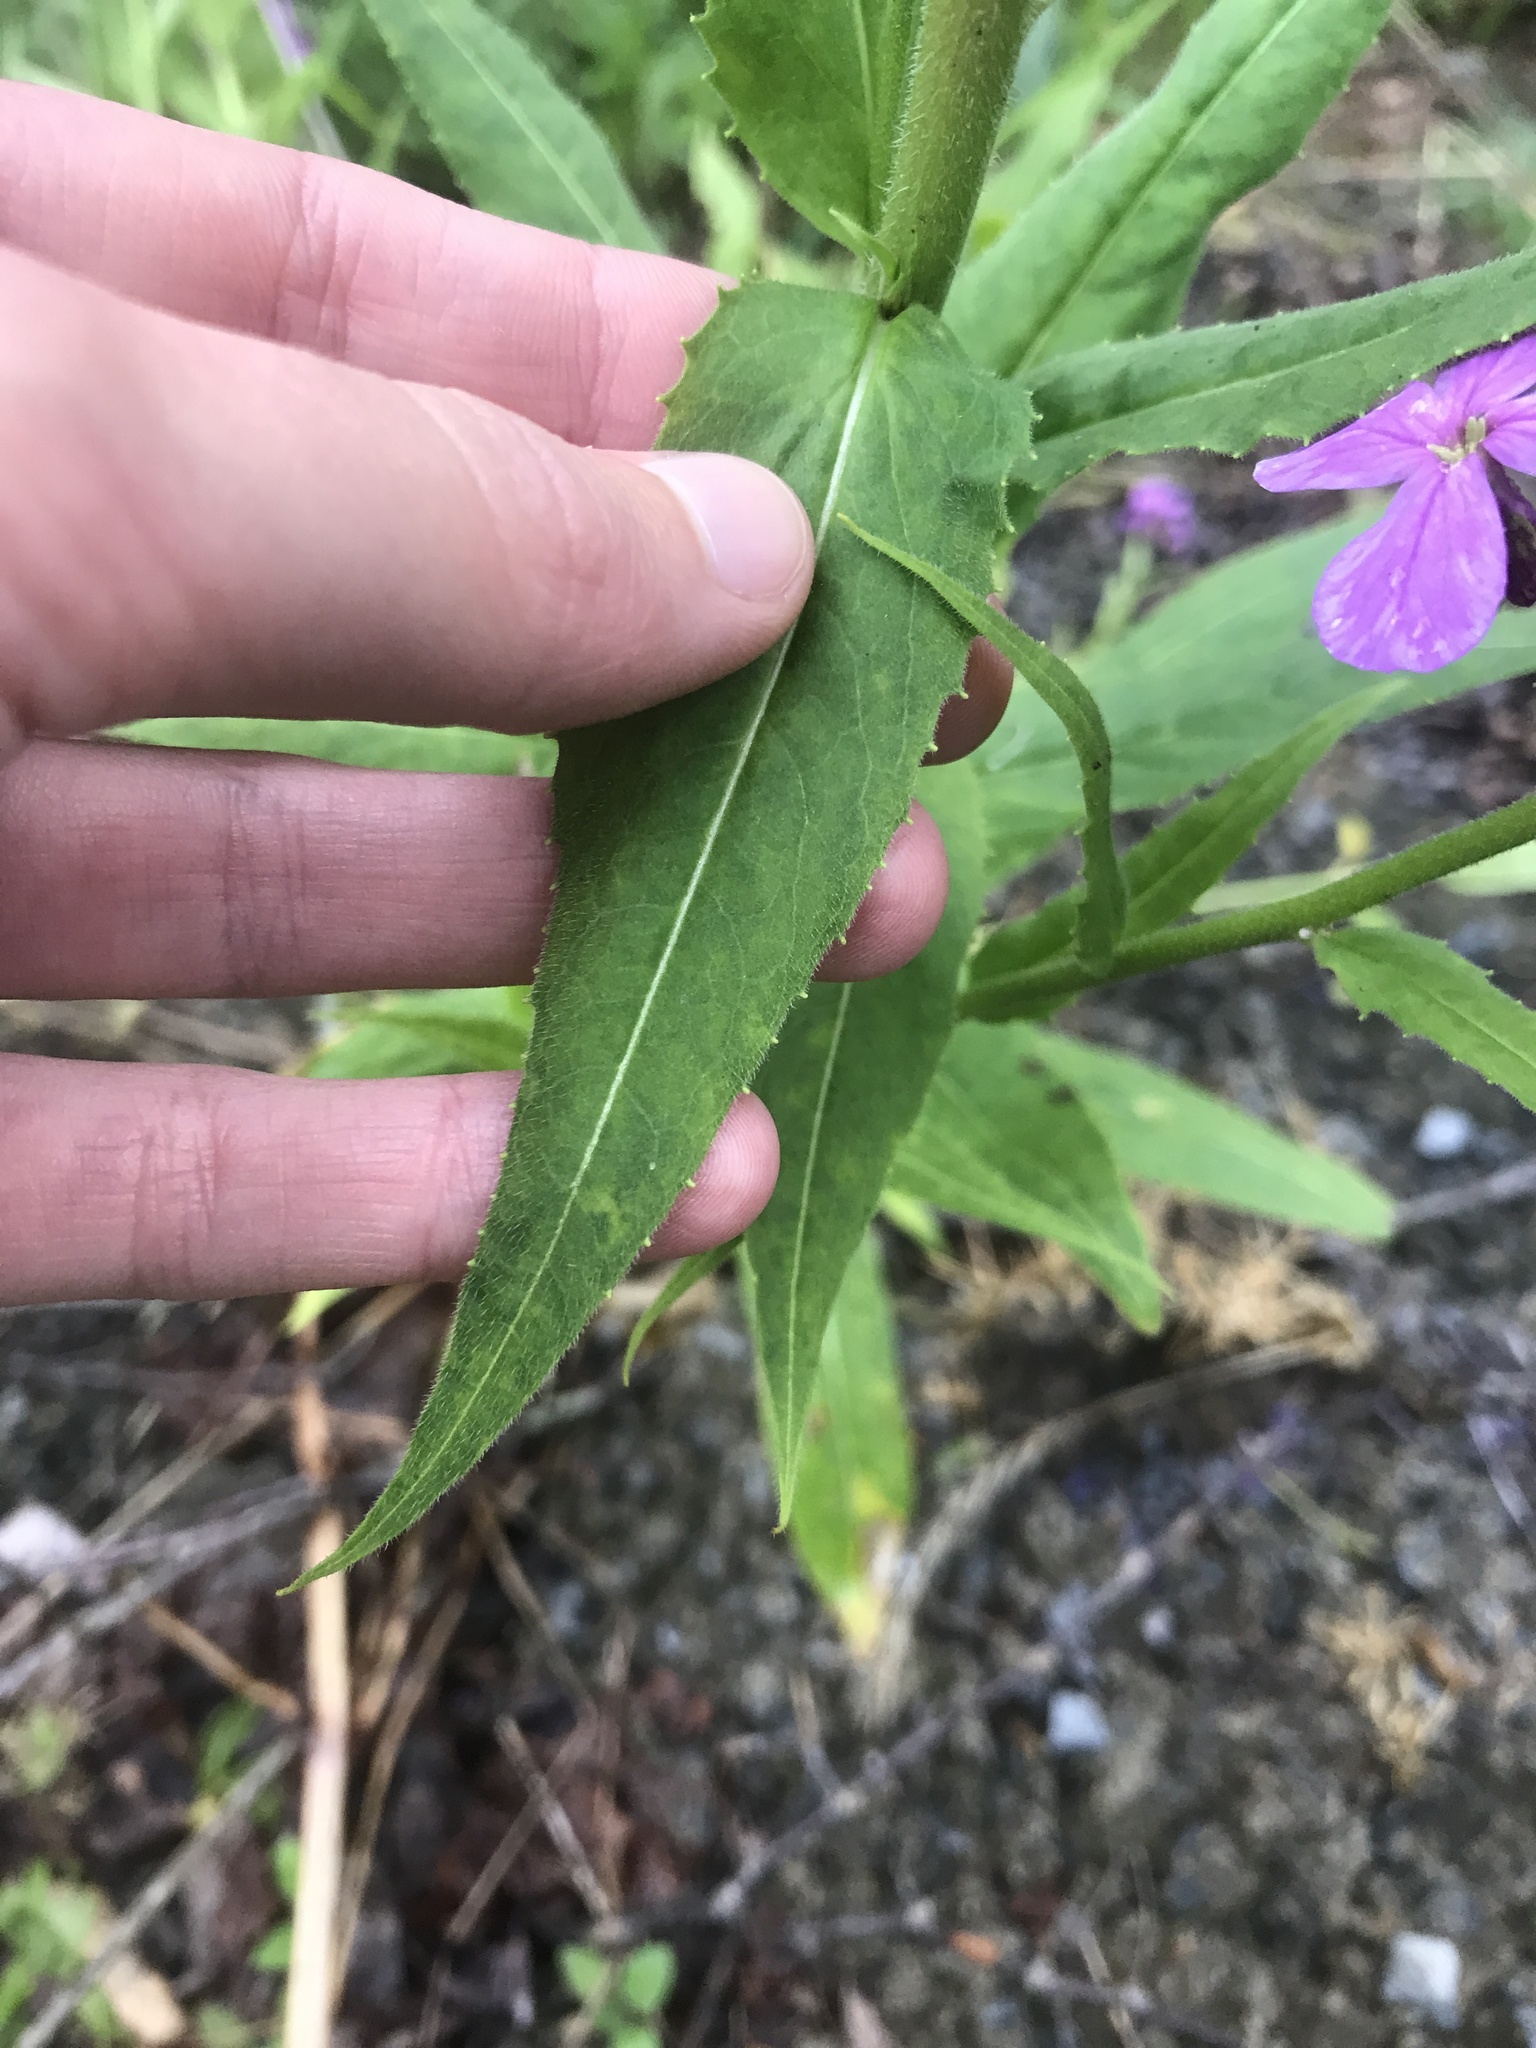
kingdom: Plantae
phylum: Tracheophyta
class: Magnoliopsida
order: Brassicales
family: Brassicaceae
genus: Hesperis
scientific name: Hesperis matronalis
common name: Dame's-violet
